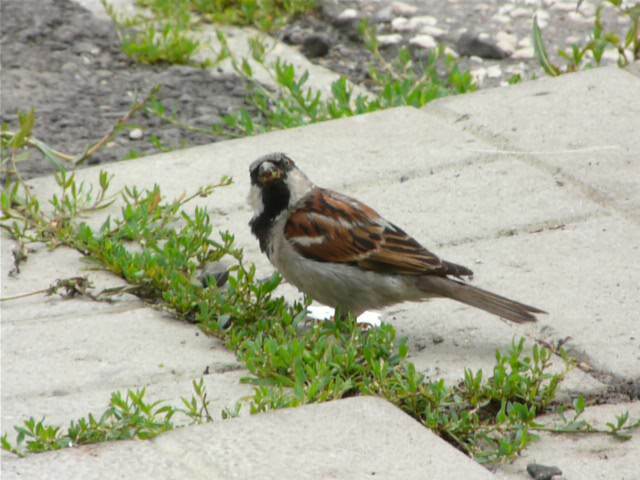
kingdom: Animalia
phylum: Chordata
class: Aves
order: Passeriformes
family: Passeridae
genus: Passer
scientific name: Passer domesticus
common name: House sparrow
